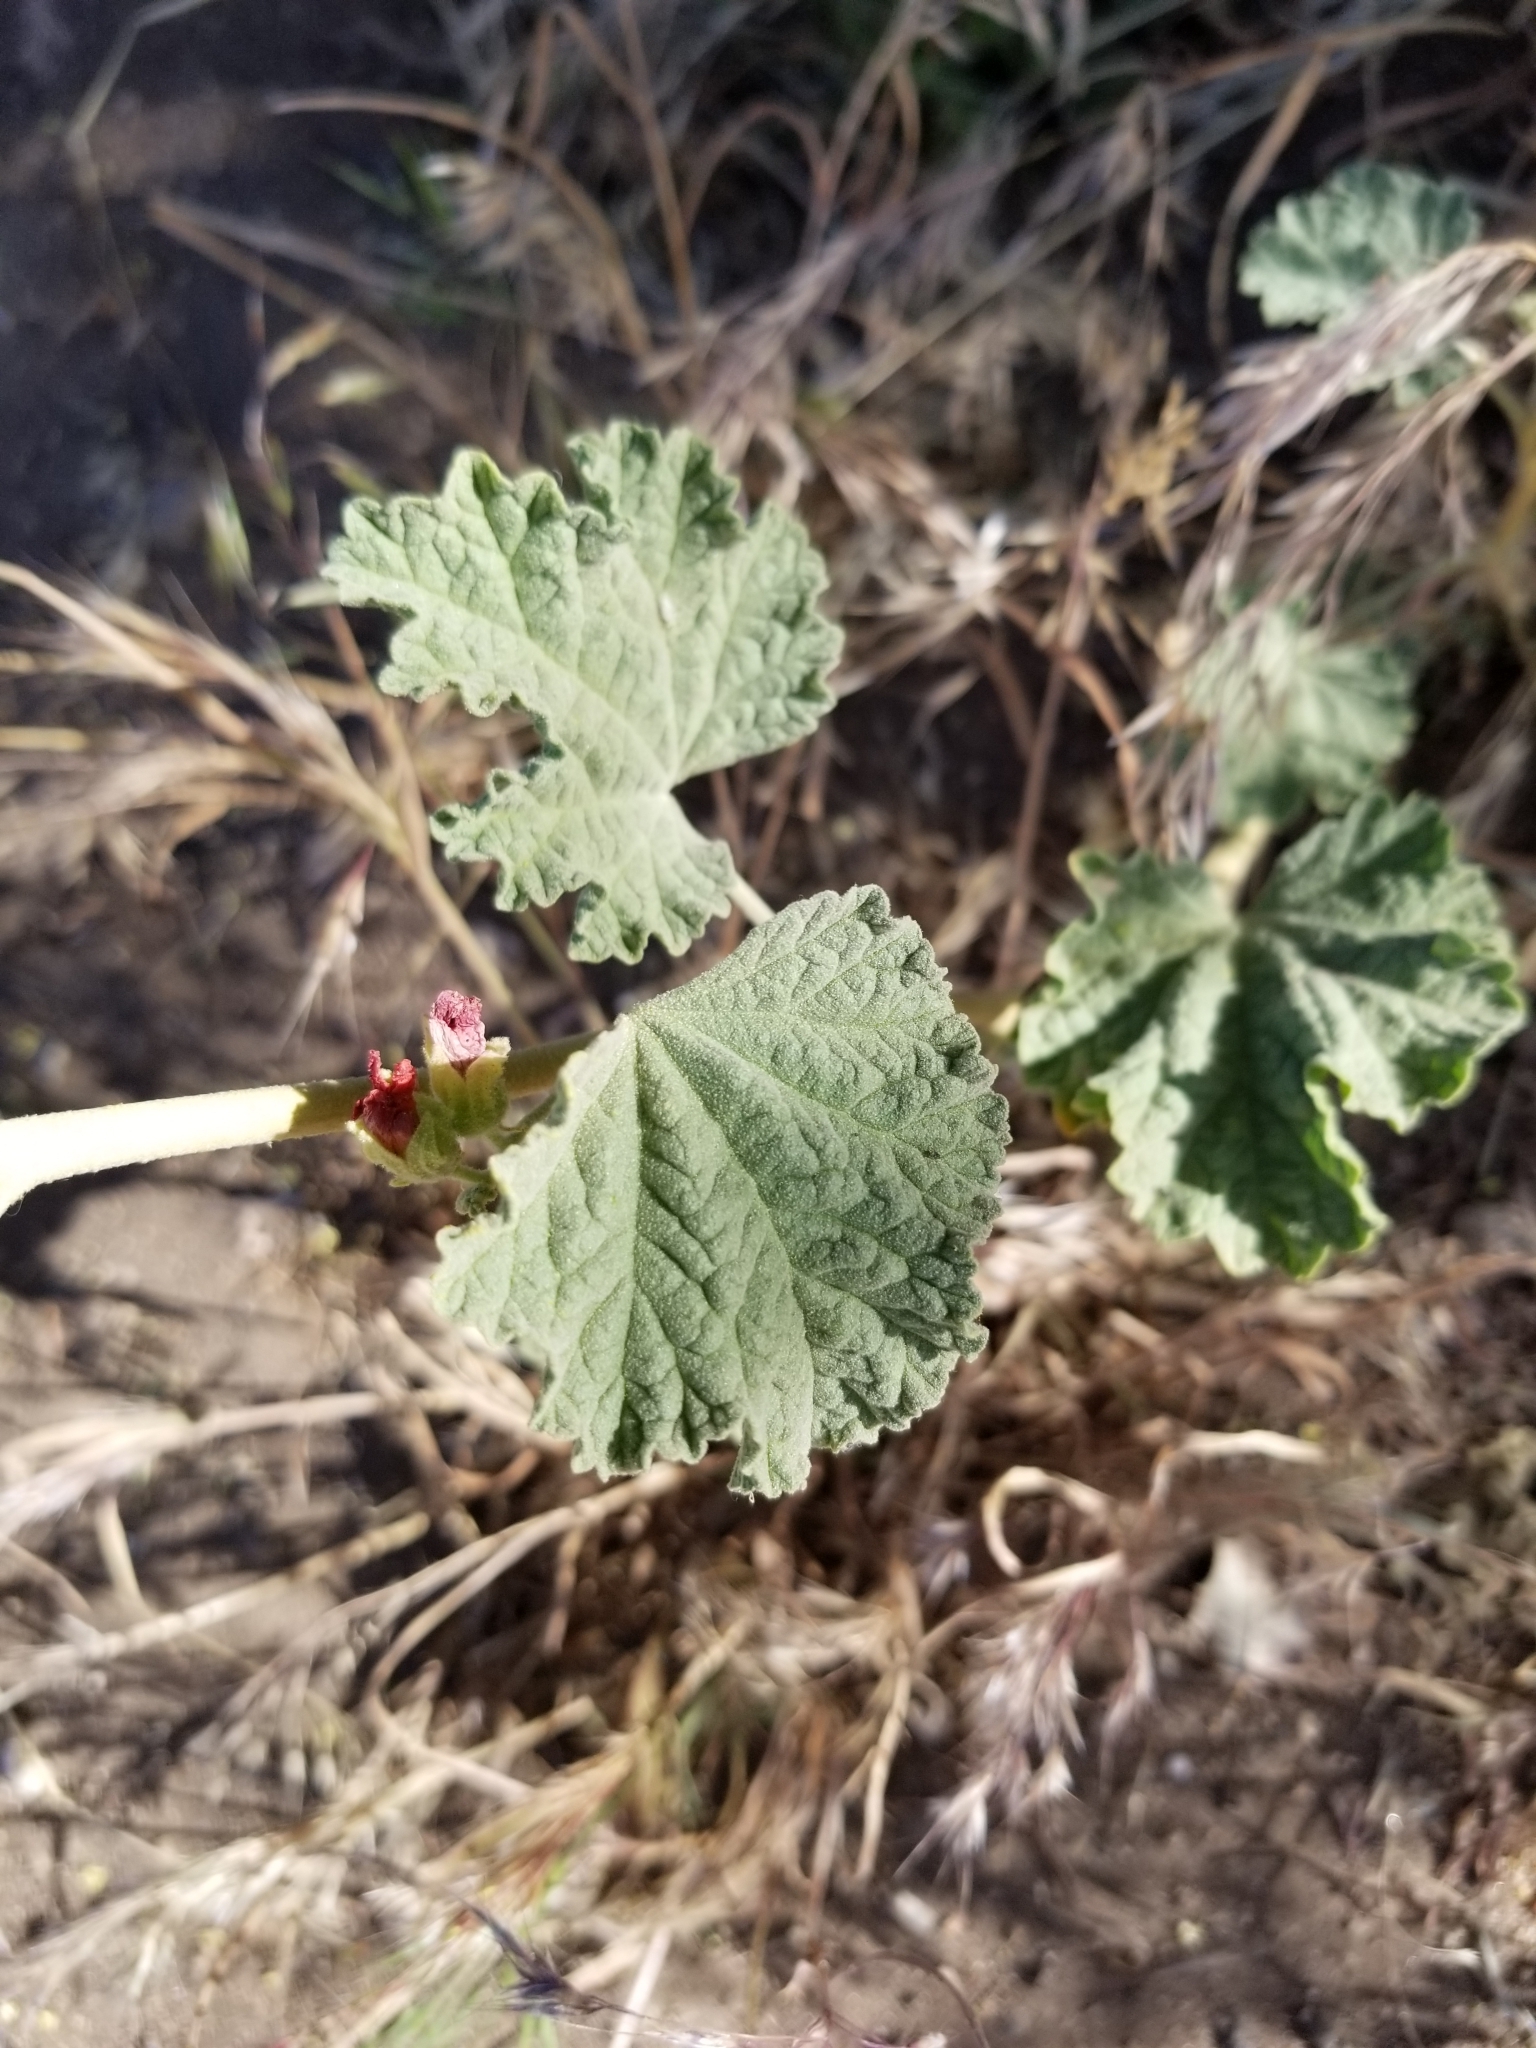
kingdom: Plantae
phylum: Tracheophyta
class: Magnoliopsida
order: Malvales
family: Malvaceae
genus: Sphaeralcea
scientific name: Sphaeralcea ambigua
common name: Apricot globe-mallow
